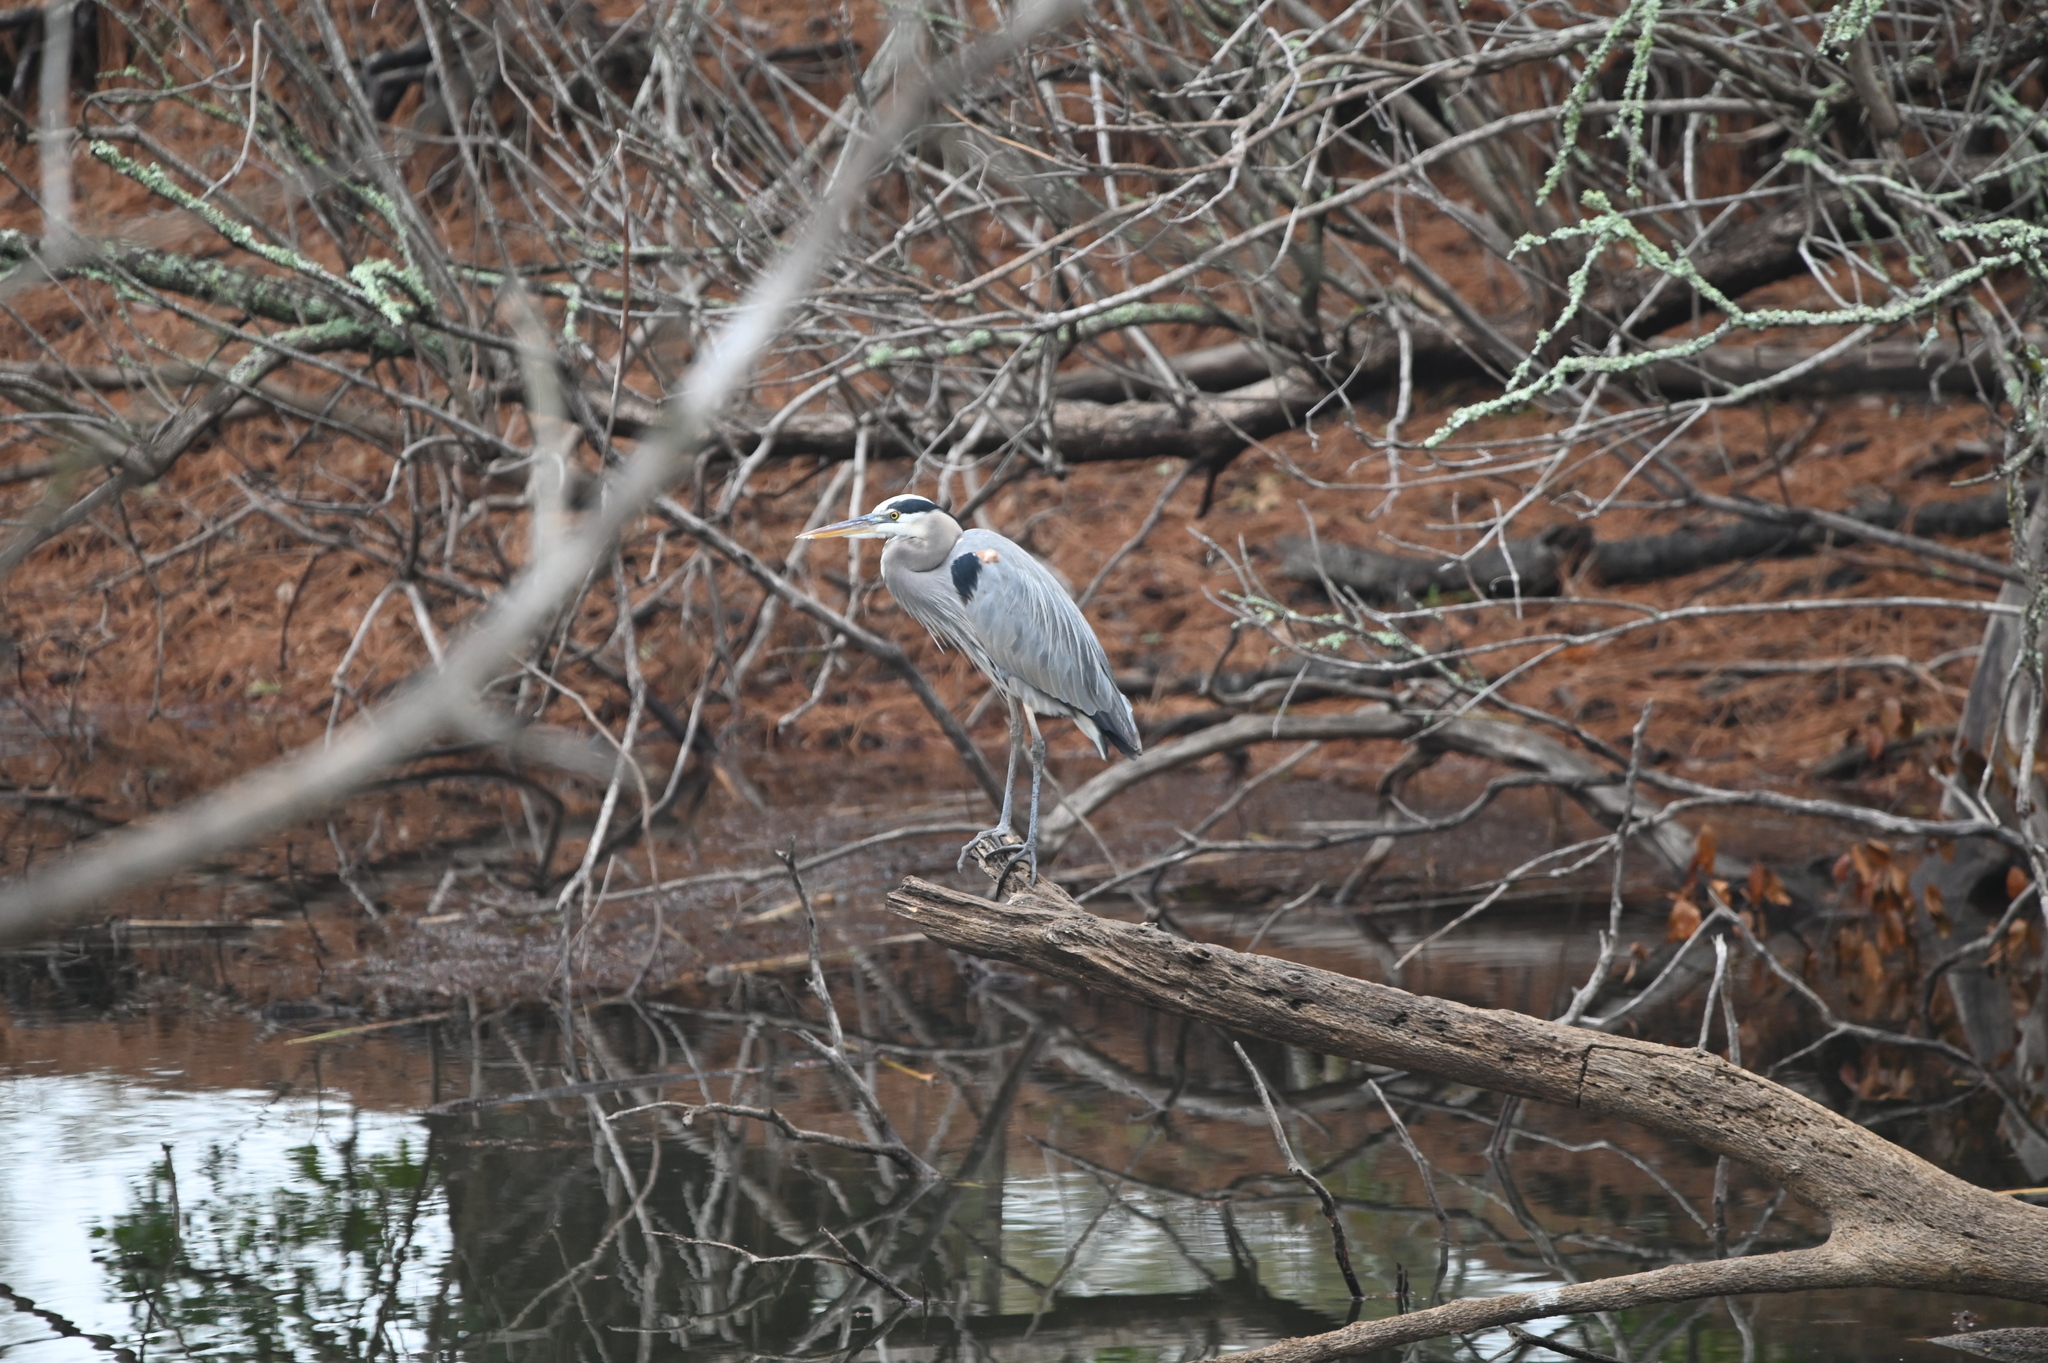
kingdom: Animalia
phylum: Chordata
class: Aves
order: Pelecaniformes
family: Ardeidae
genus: Ardea
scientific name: Ardea herodias
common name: Great blue heron
